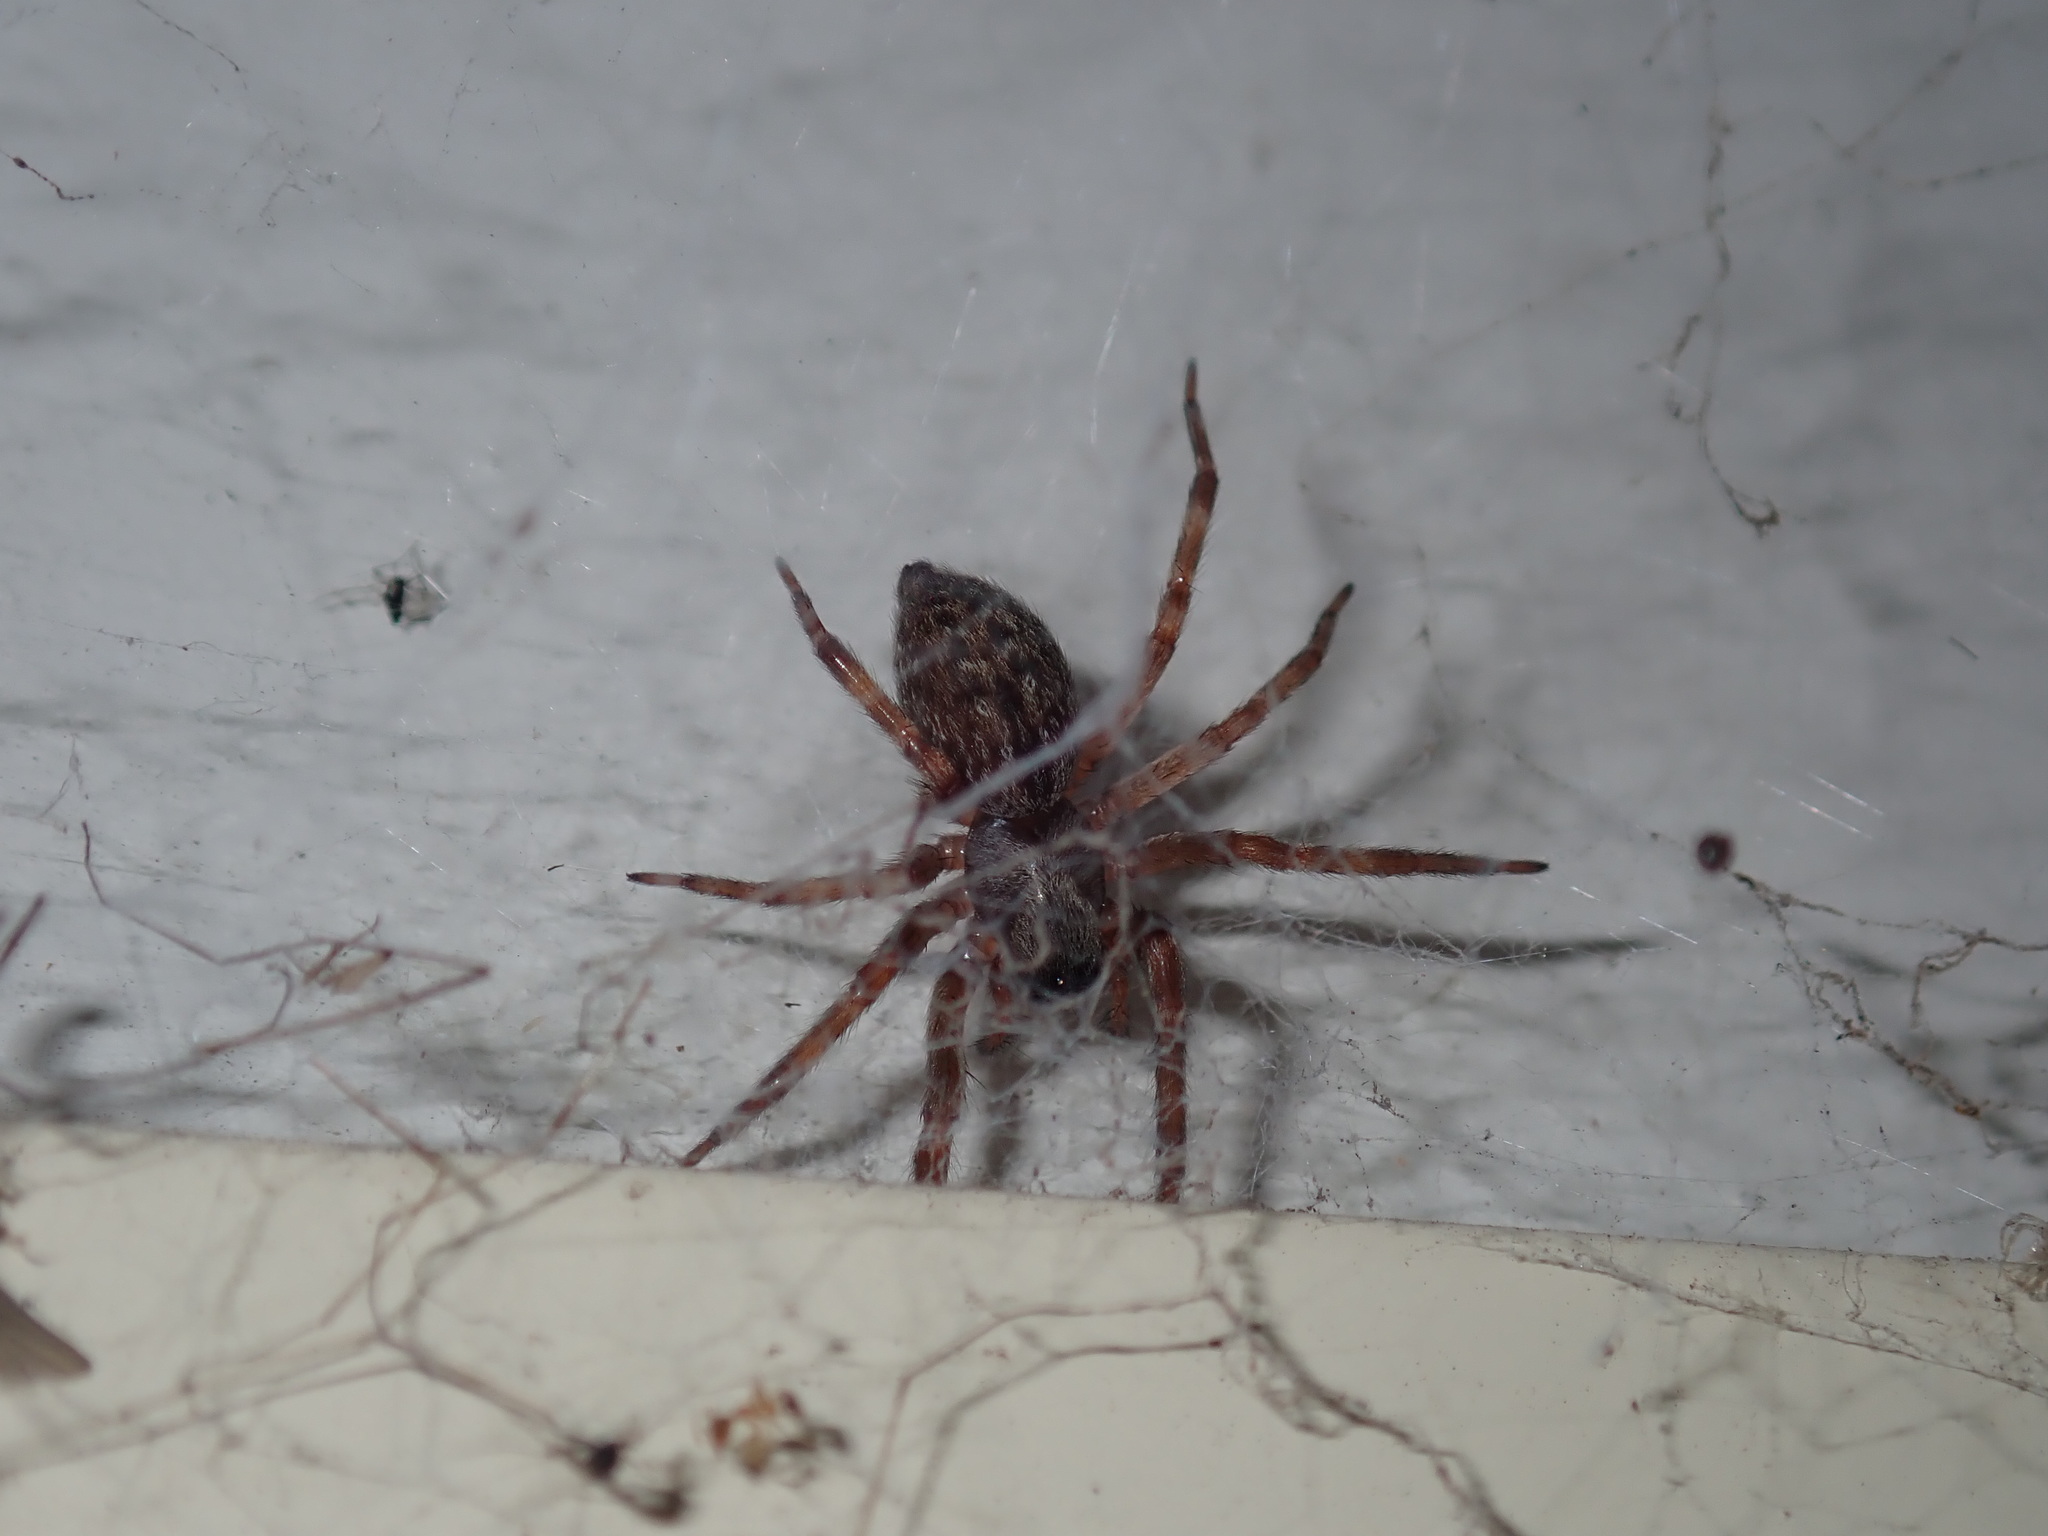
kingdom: Animalia
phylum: Arthropoda
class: Arachnida
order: Araneae
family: Desidae
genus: Badumna
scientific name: Badumna longinqua
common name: Gray house spider
